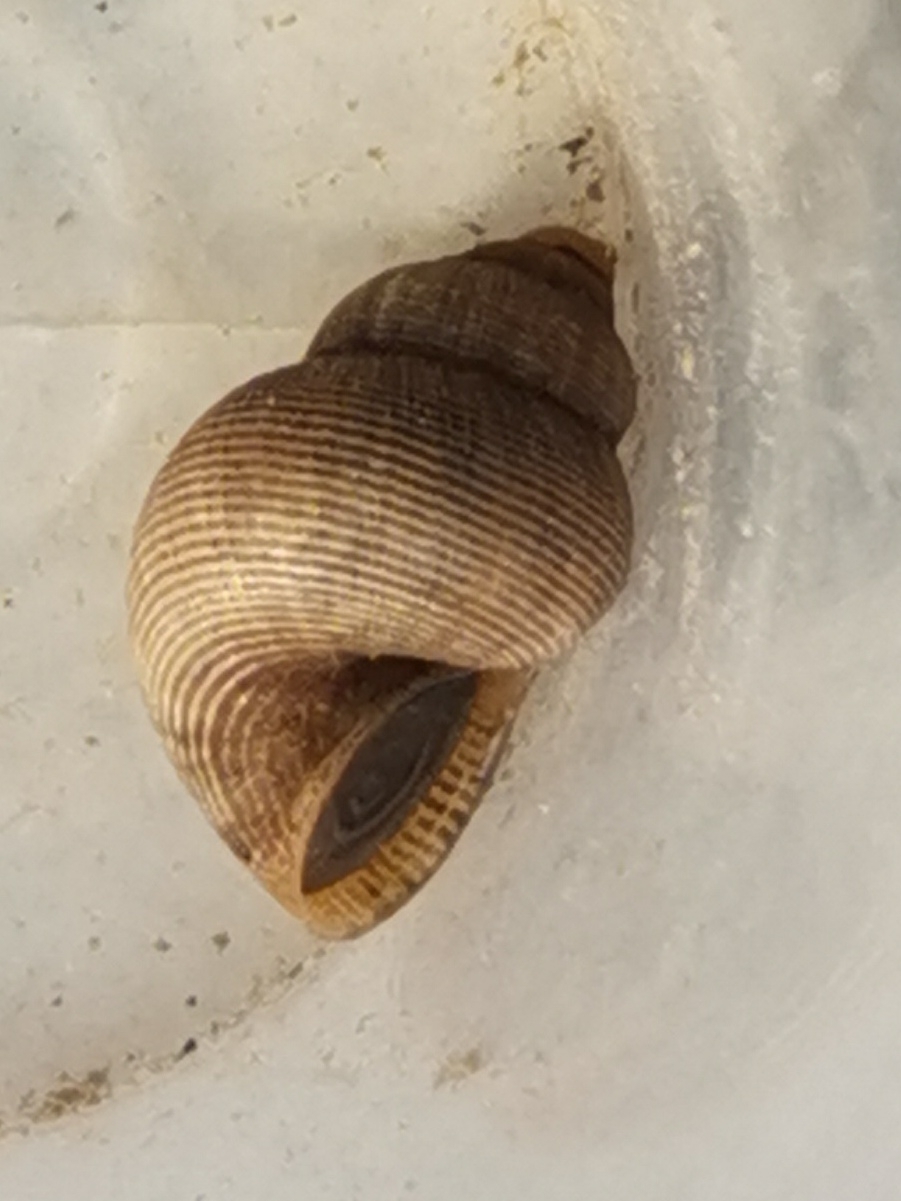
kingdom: Animalia
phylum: Mollusca
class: Gastropoda
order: Littorinimorpha
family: Pomatiidae
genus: Pomatias
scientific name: Pomatias elegans
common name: Red-mouthed snail
